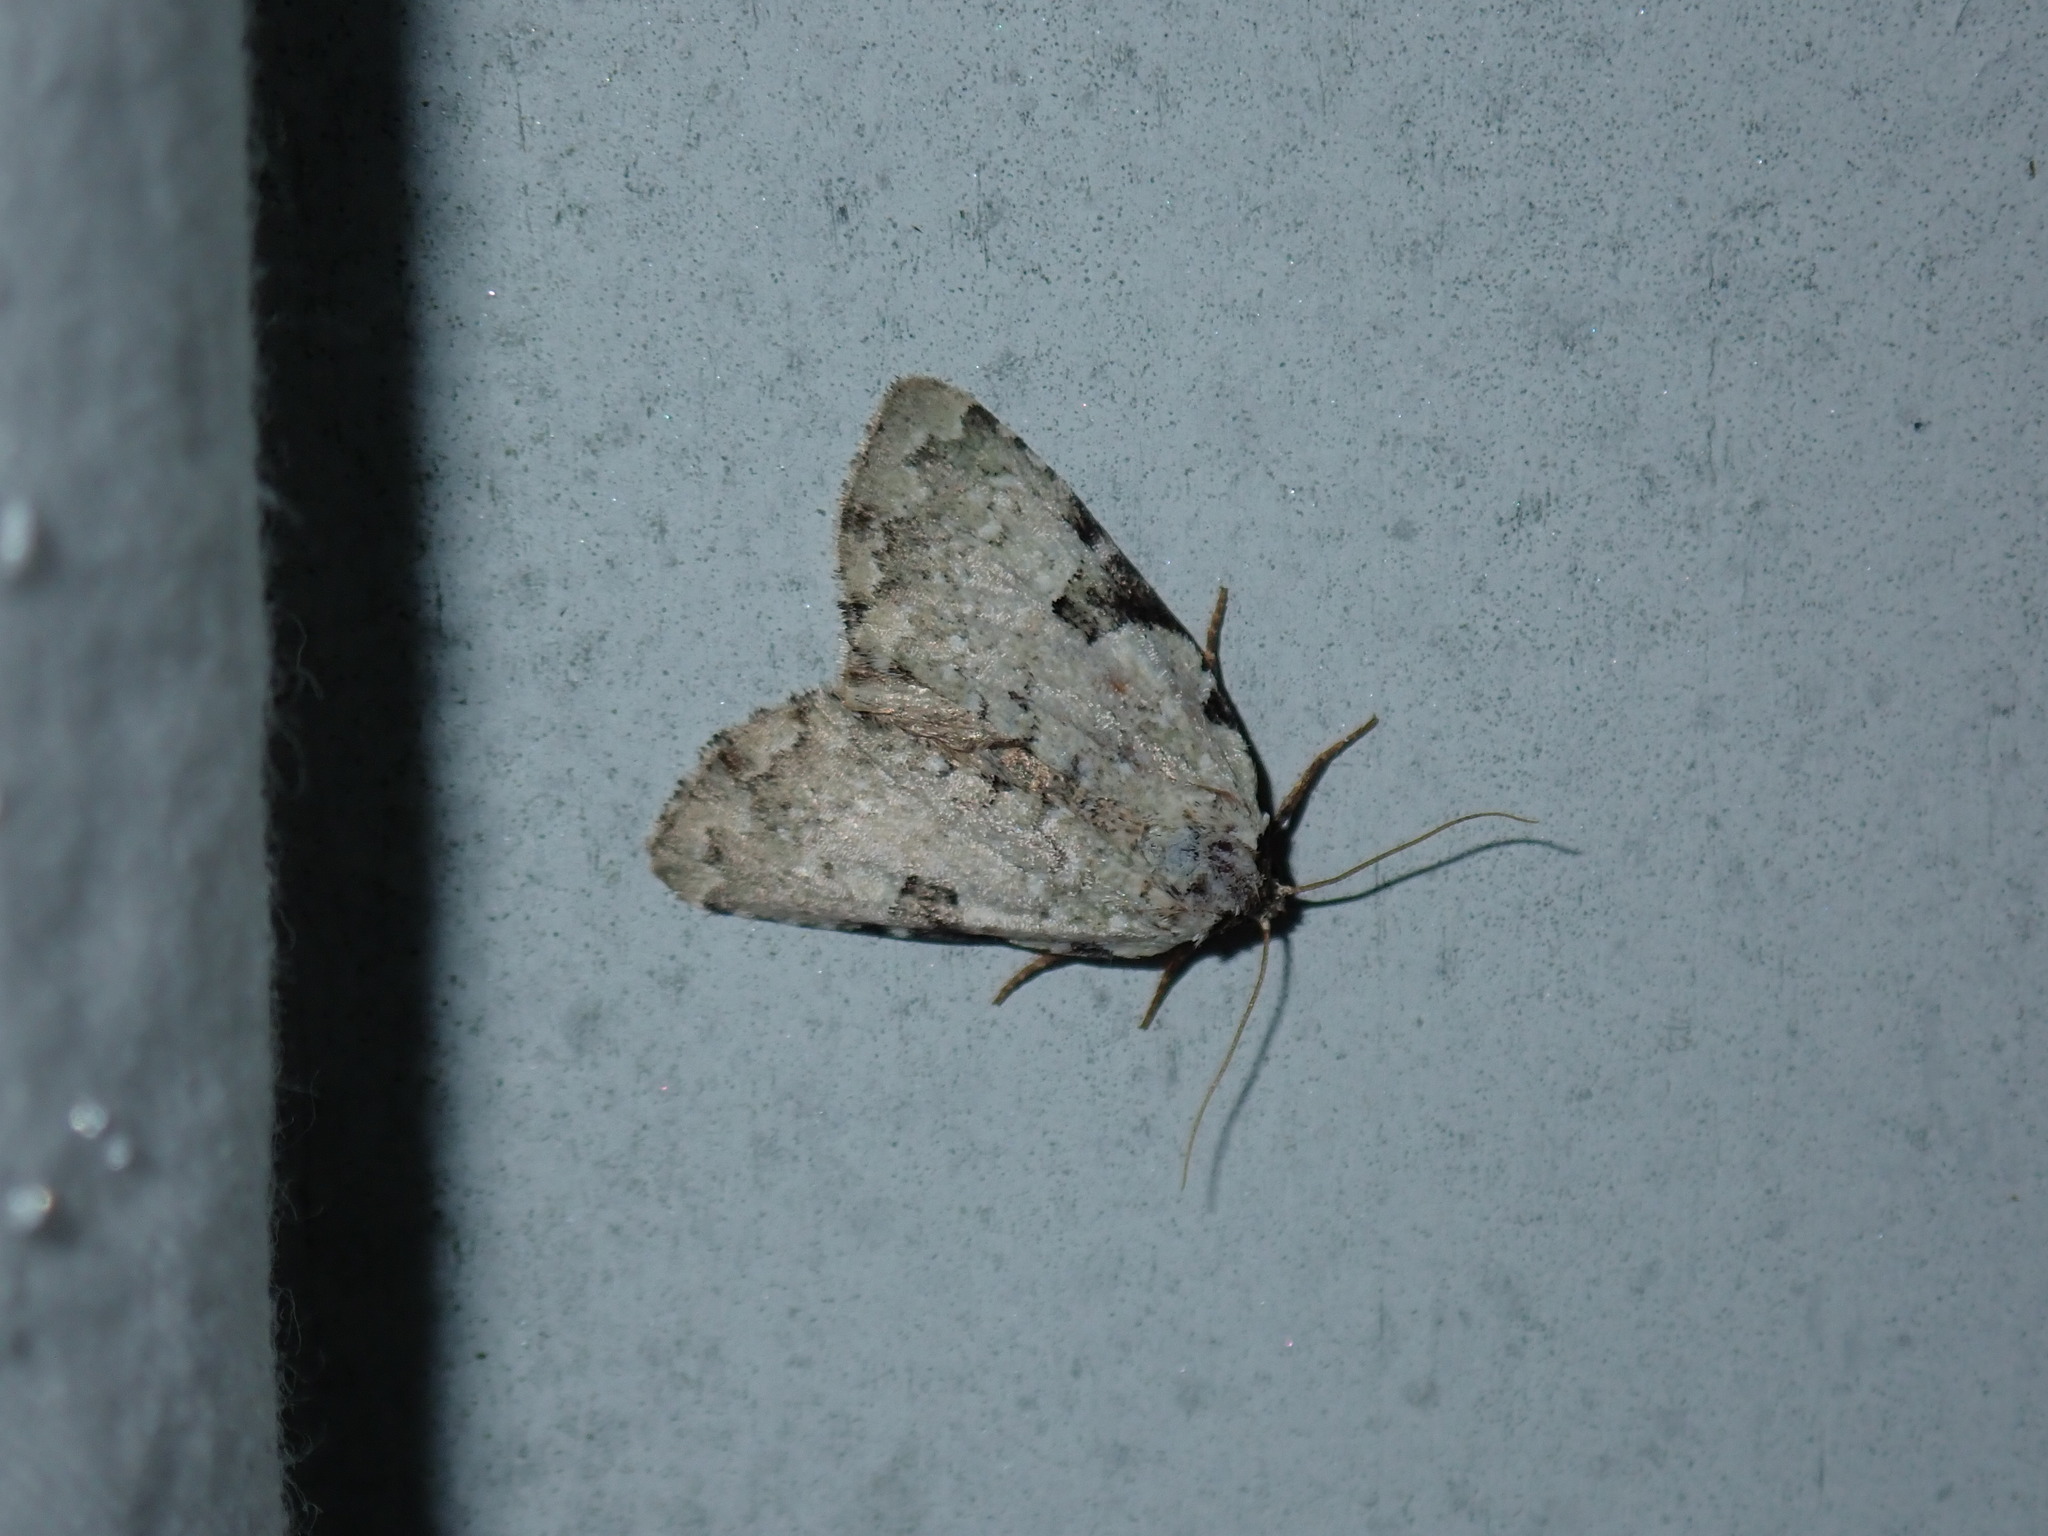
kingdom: Animalia
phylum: Arthropoda
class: Insecta
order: Lepidoptera
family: Noctuidae
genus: Leuconycta
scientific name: Leuconycta diphteroides
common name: Green leuconycta moth
